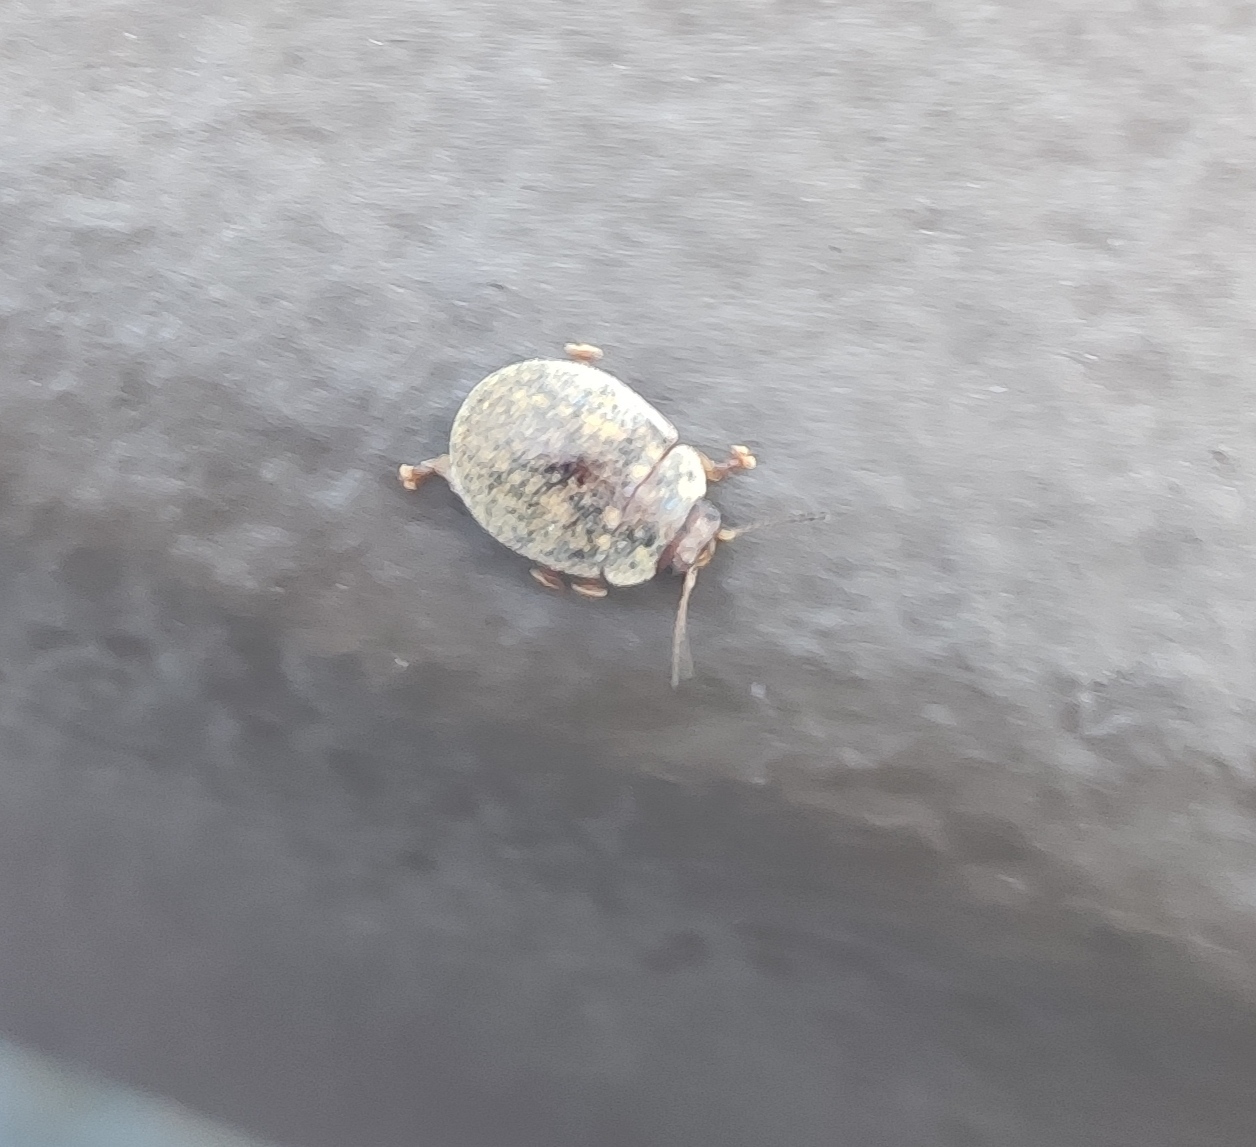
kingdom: Animalia
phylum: Arthropoda
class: Insecta
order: Coleoptera
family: Chrysomelidae
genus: Trachymela
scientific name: Trachymela sloanei
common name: Australian tortoise beetle
